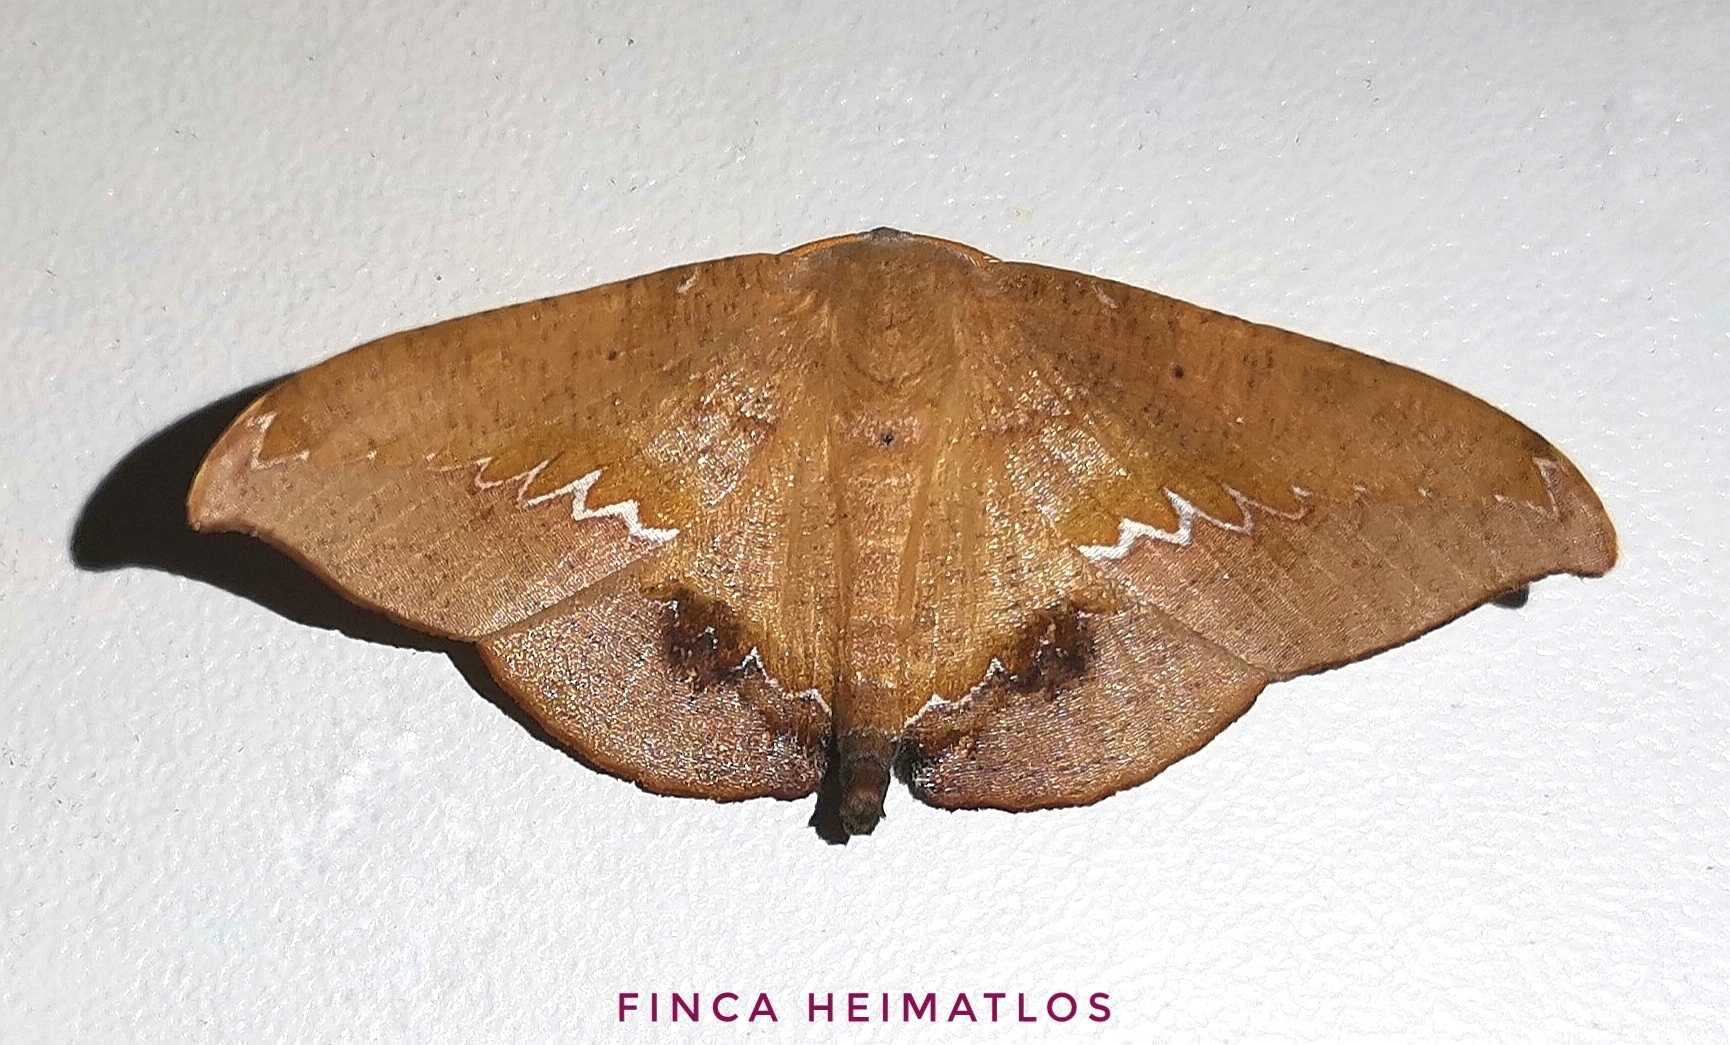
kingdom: Animalia
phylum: Arthropoda
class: Insecta
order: Lepidoptera
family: Geometridae
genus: Patalene
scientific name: Patalene asychisaria
